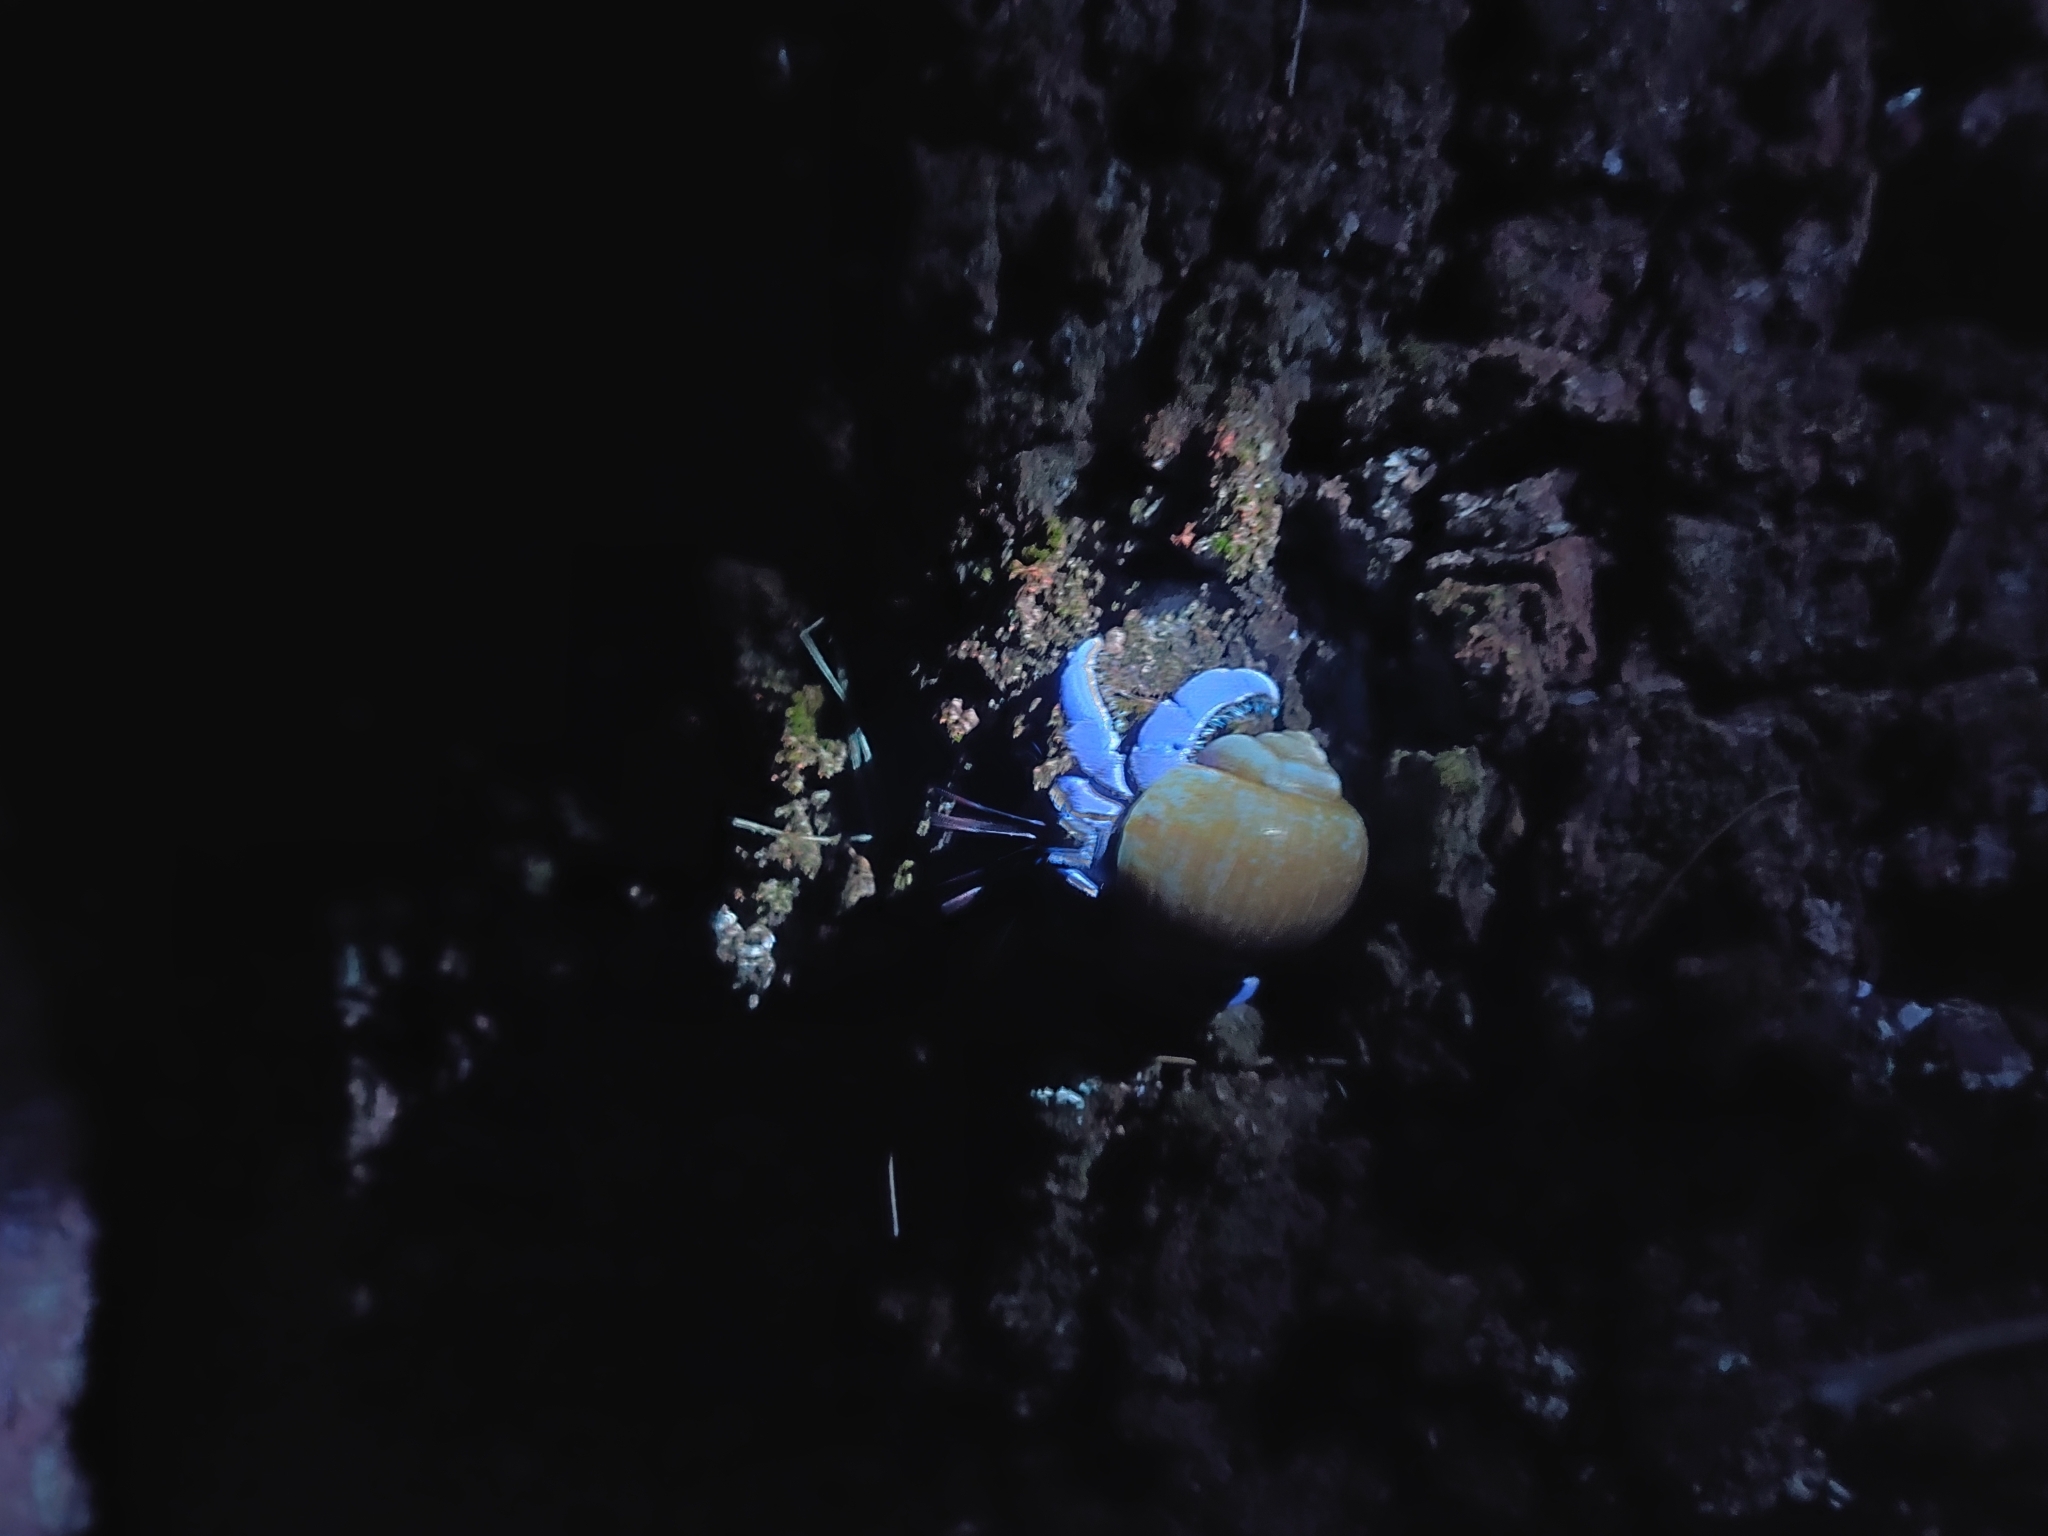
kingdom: Animalia
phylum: Arthropoda
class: Malacostraca
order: Decapoda
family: Coenobitidae
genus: Coenobita
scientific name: Coenobita violascens
